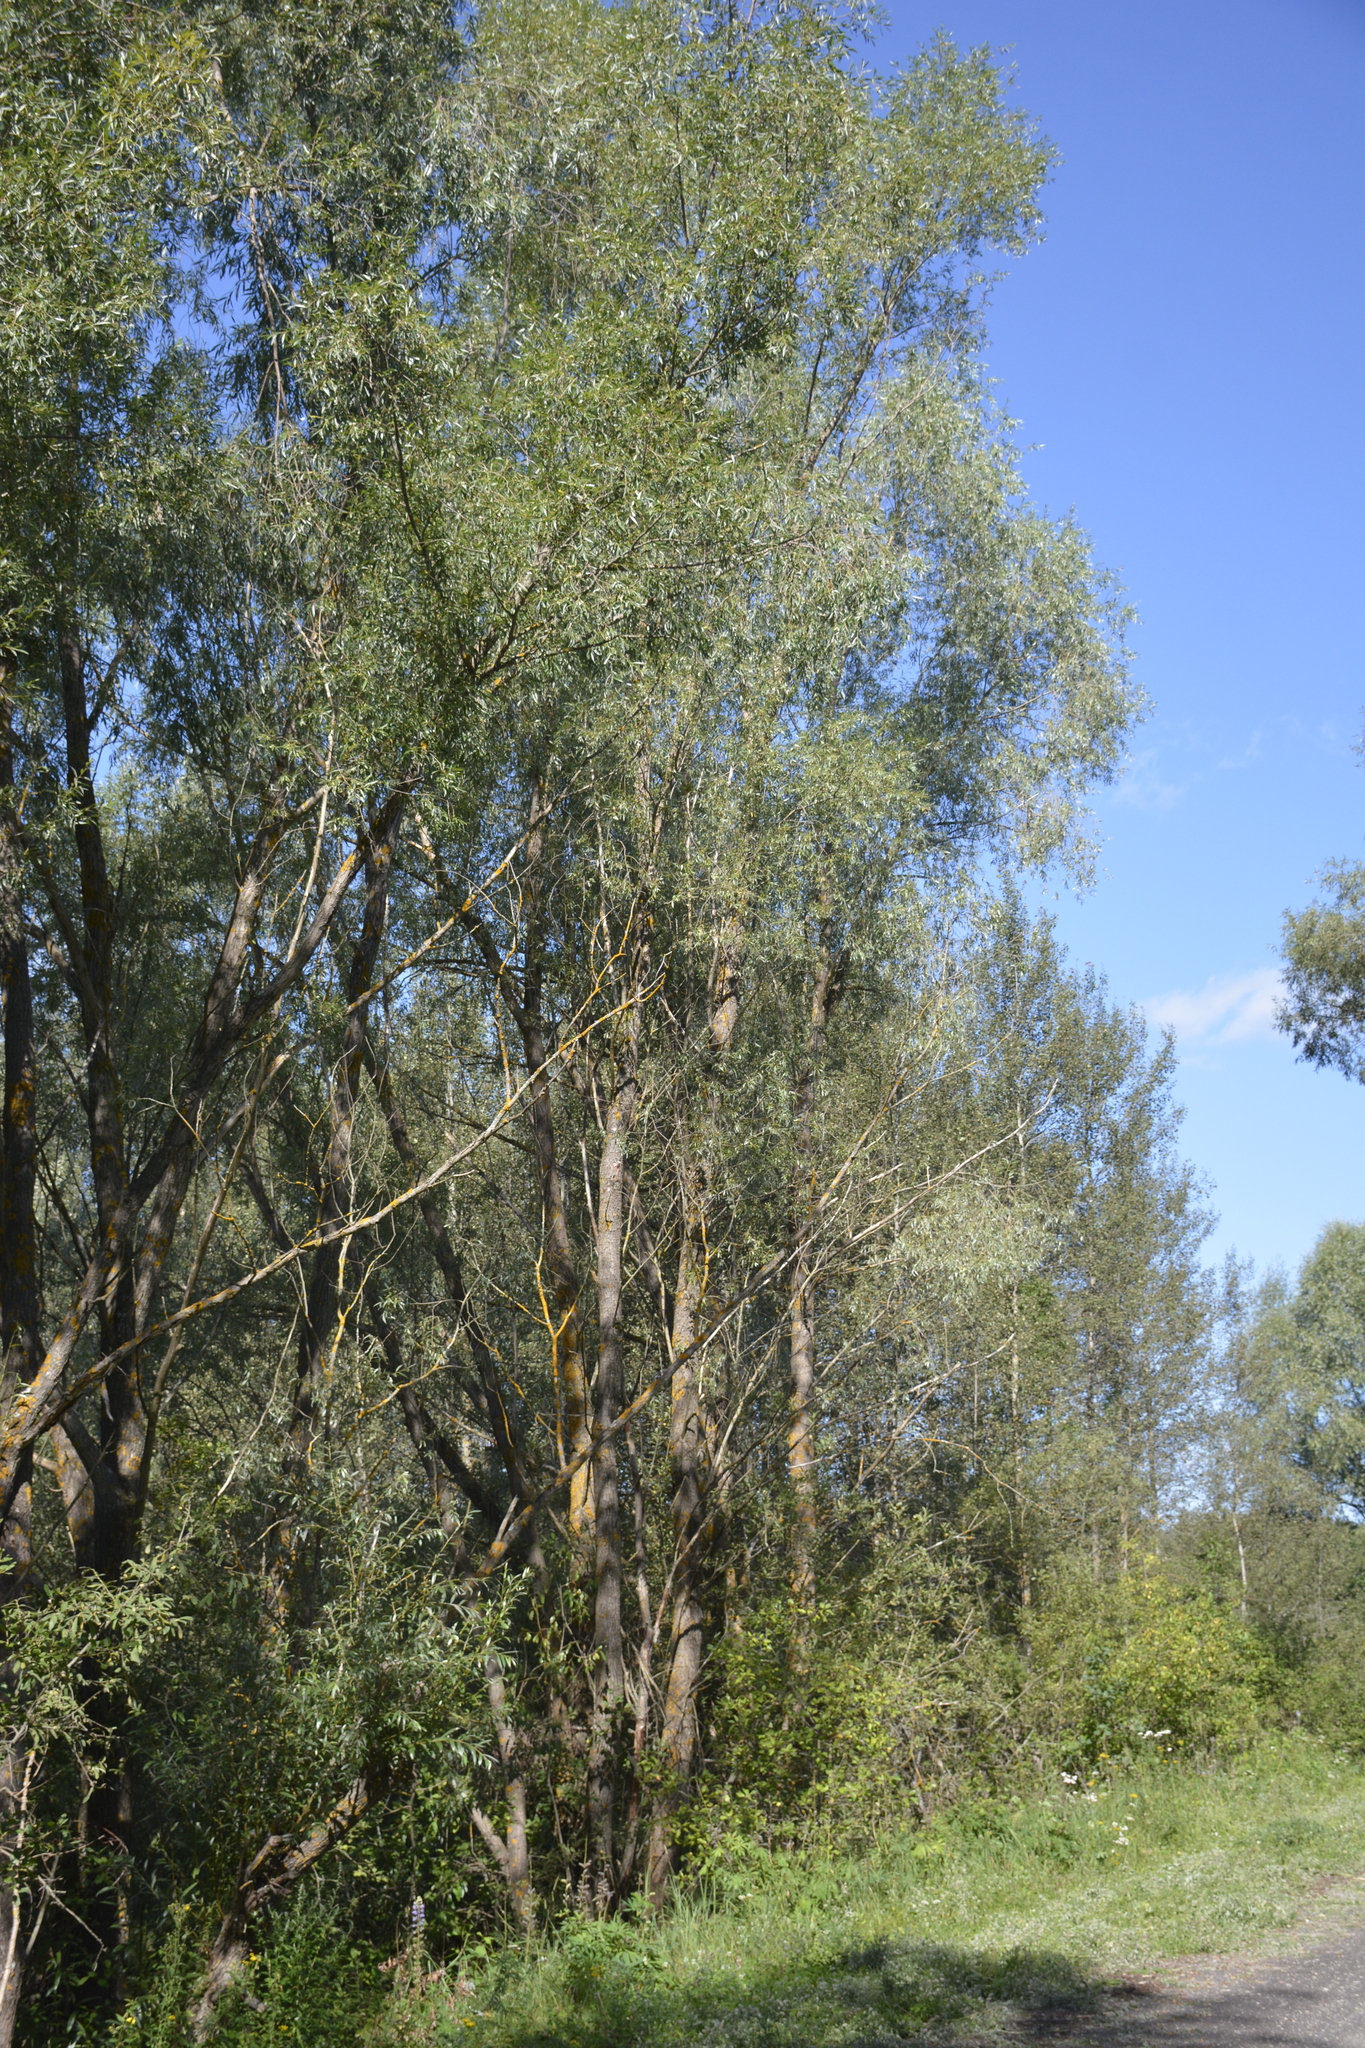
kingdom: Plantae
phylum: Tracheophyta
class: Magnoliopsida
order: Malpighiales
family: Salicaceae
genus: Salix
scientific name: Salix alba
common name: White willow
